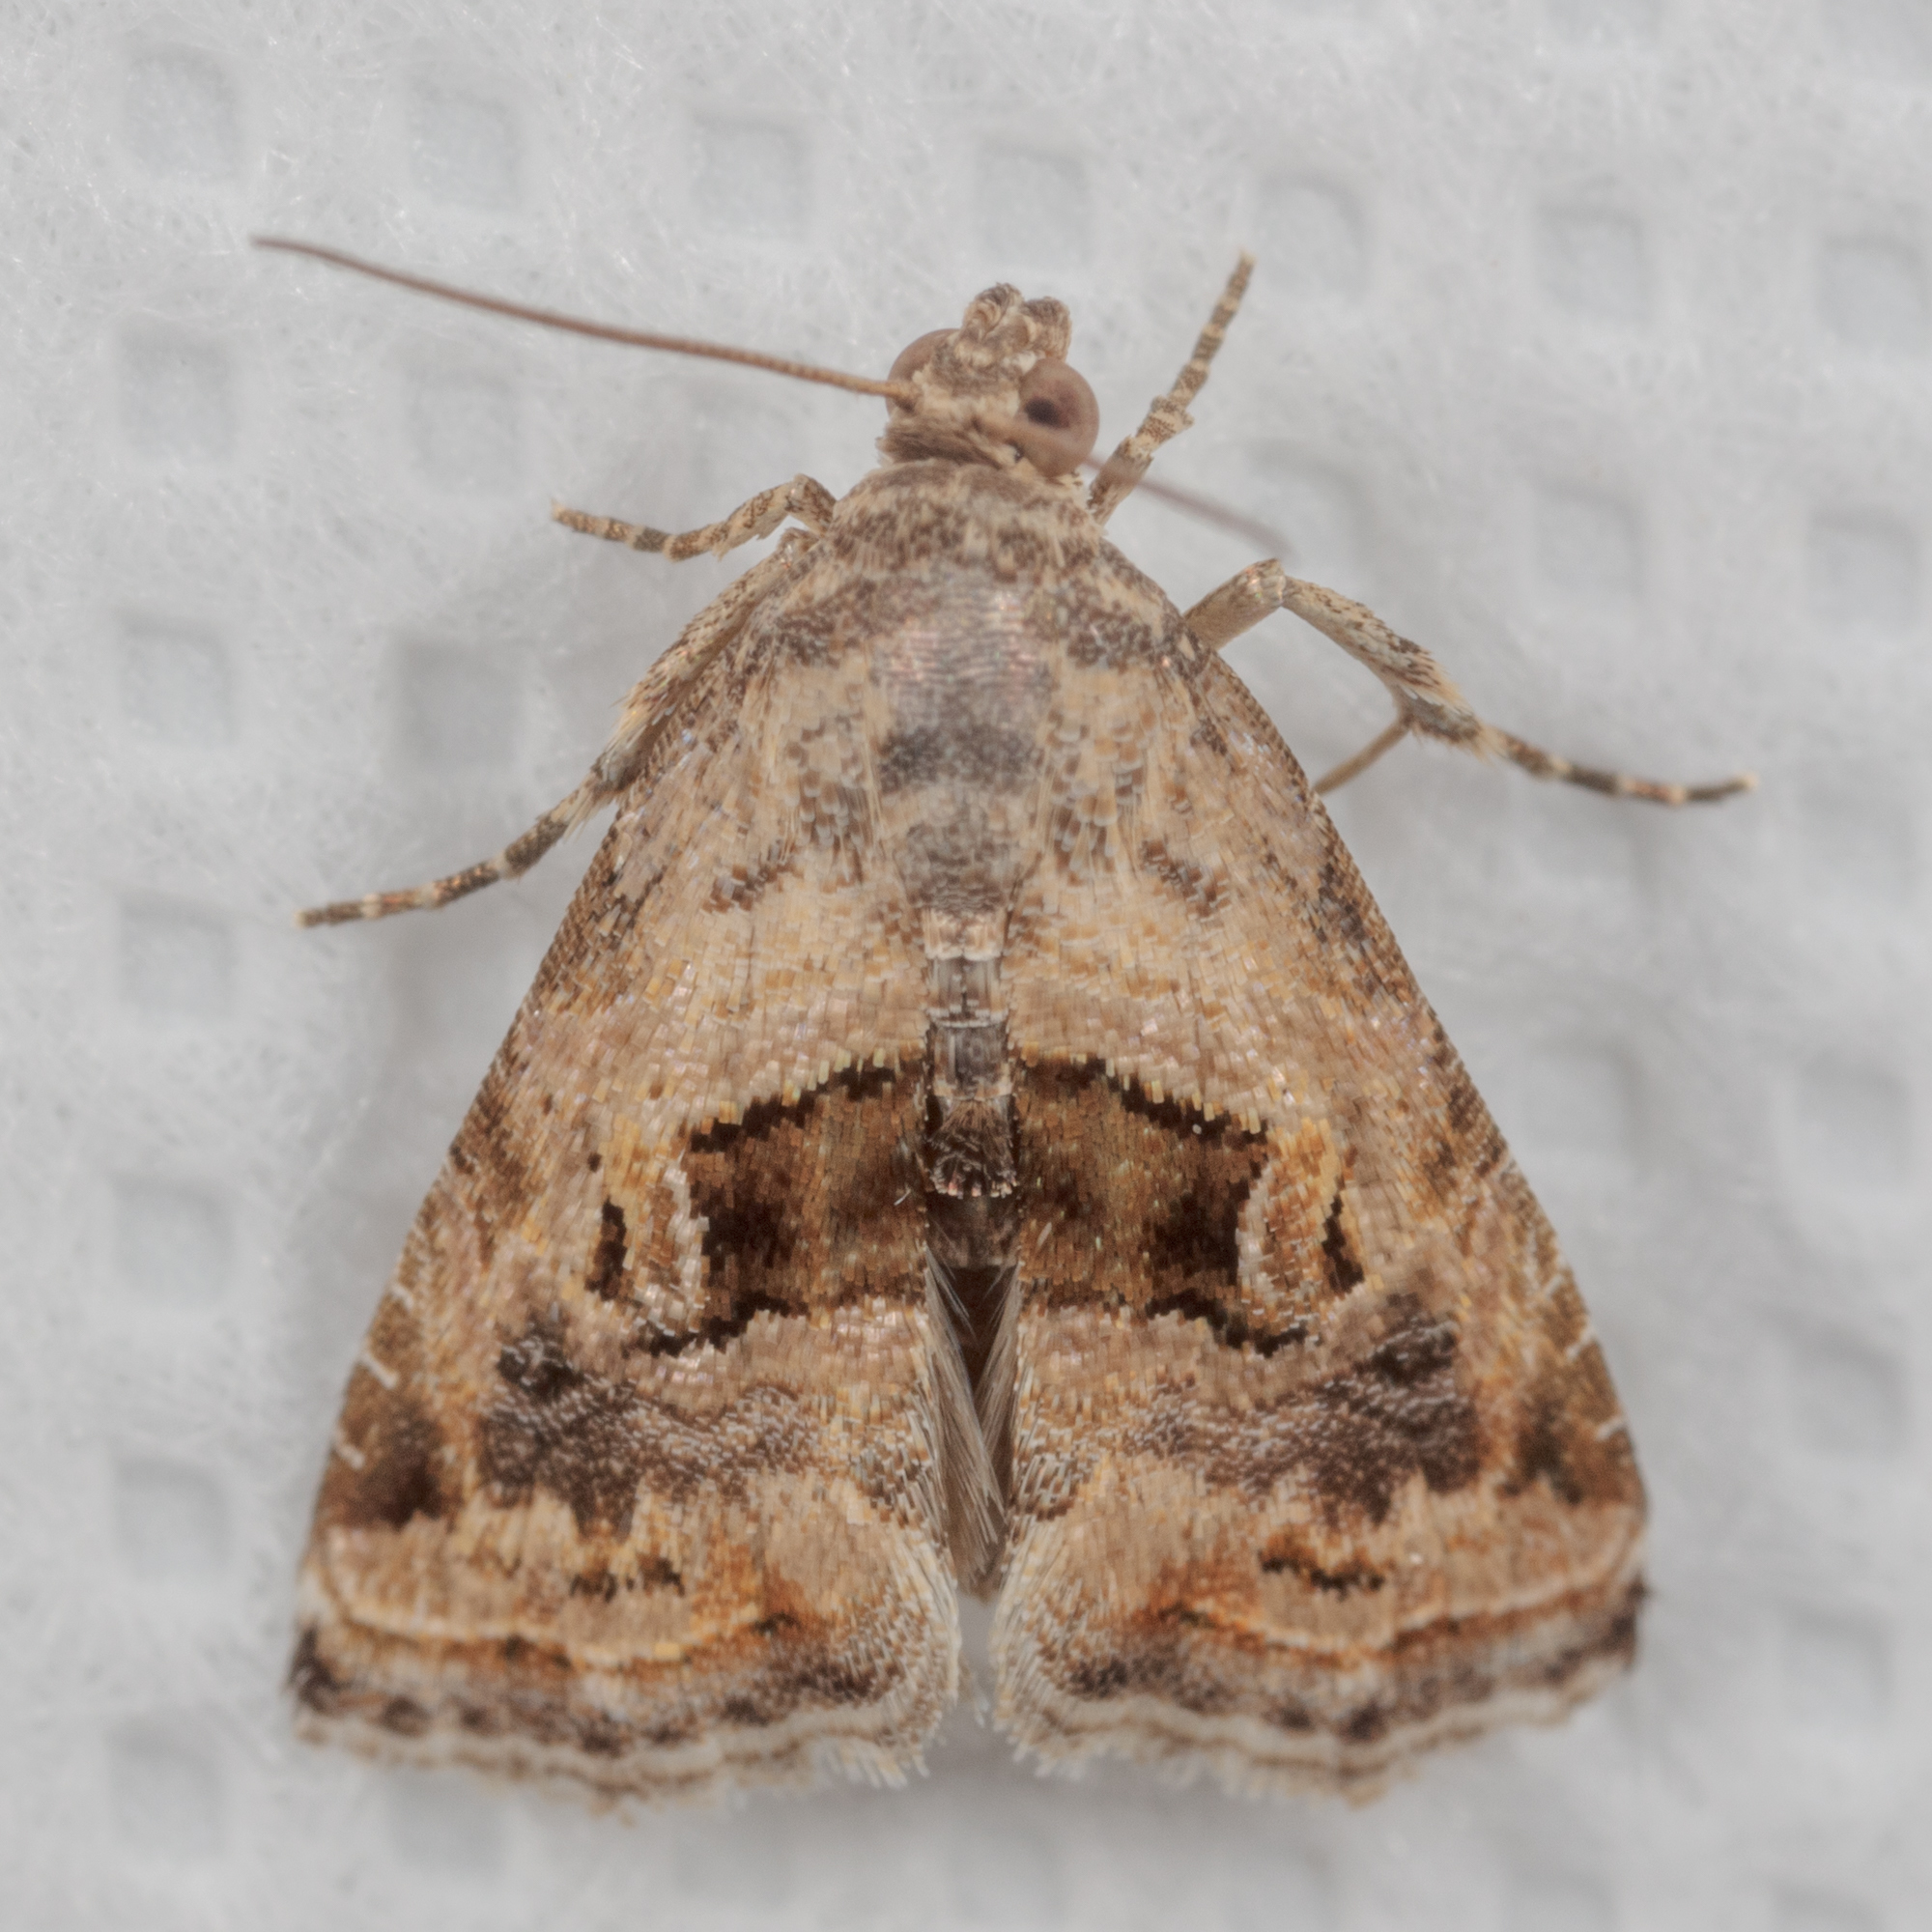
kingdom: Animalia
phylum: Arthropoda
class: Insecta
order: Lepidoptera
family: Noctuidae
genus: Tripudia
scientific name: Tripudia quadrifera
